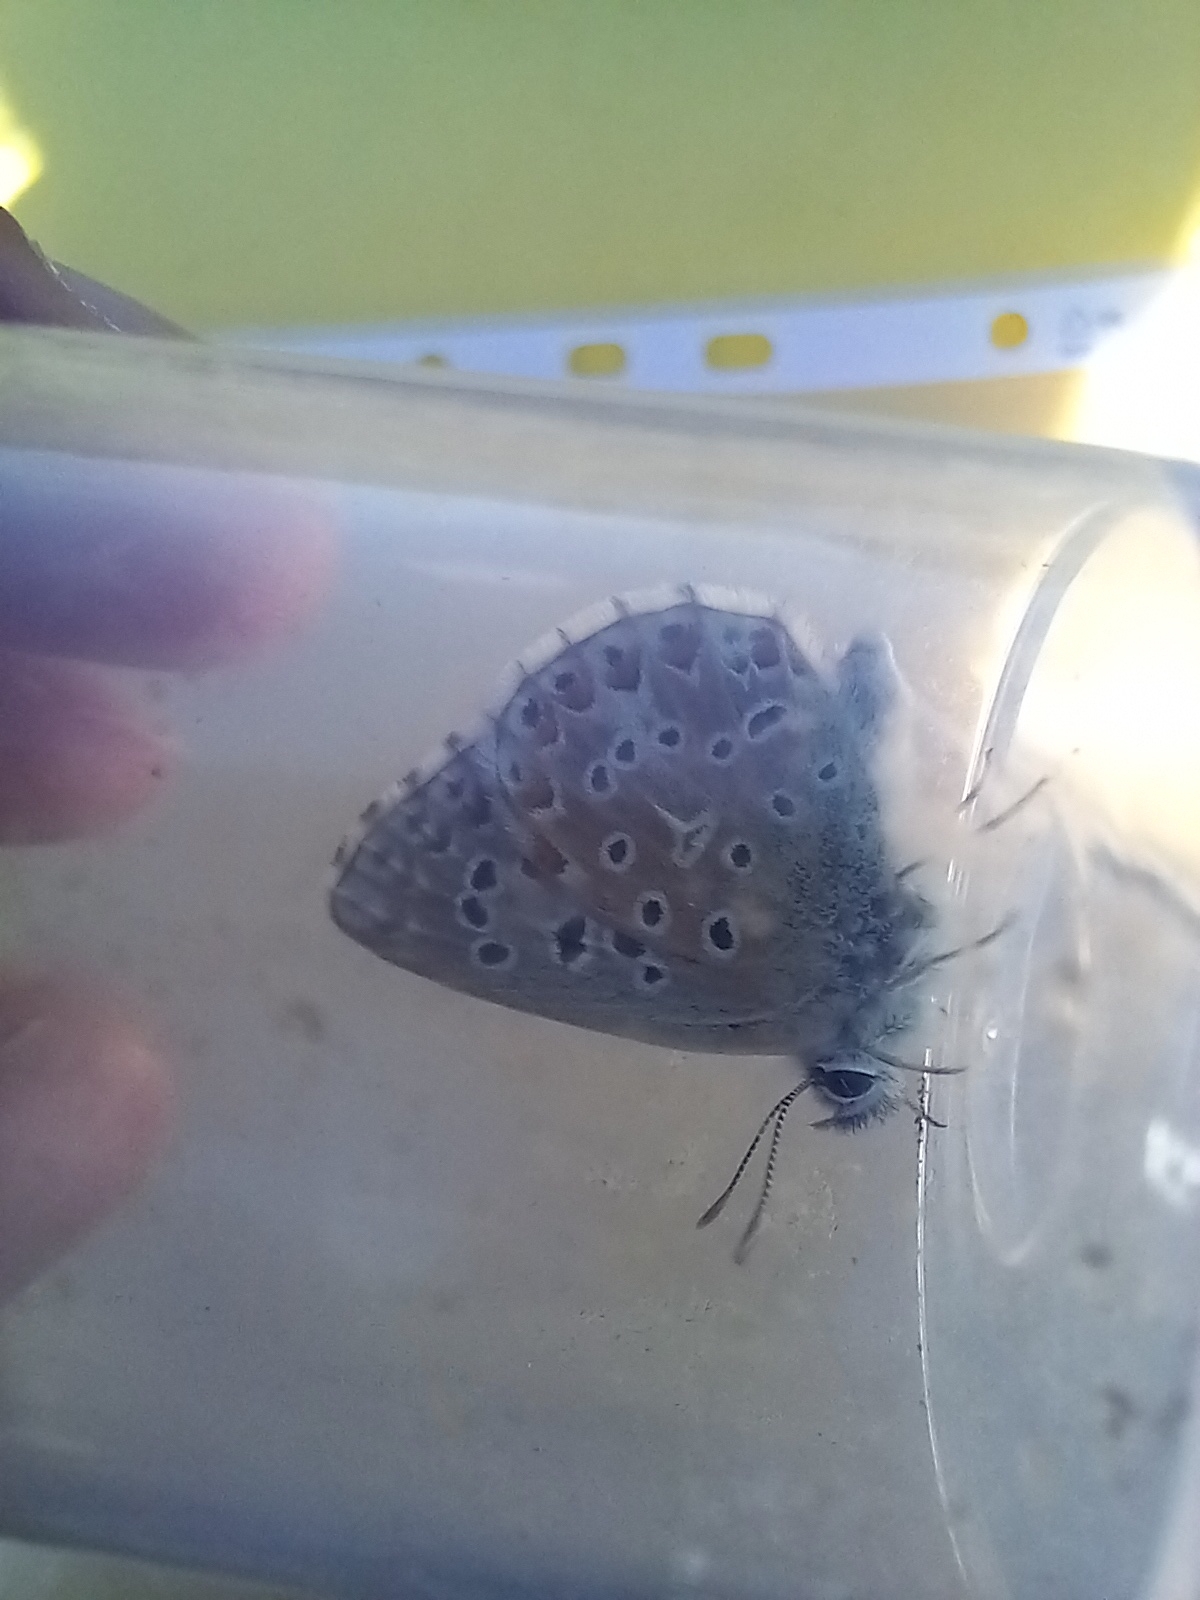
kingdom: Animalia
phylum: Arthropoda
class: Insecta
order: Lepidoptera
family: Lycaenidae
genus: Lysandra
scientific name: Lysandra bellargus
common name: Adonis blue
